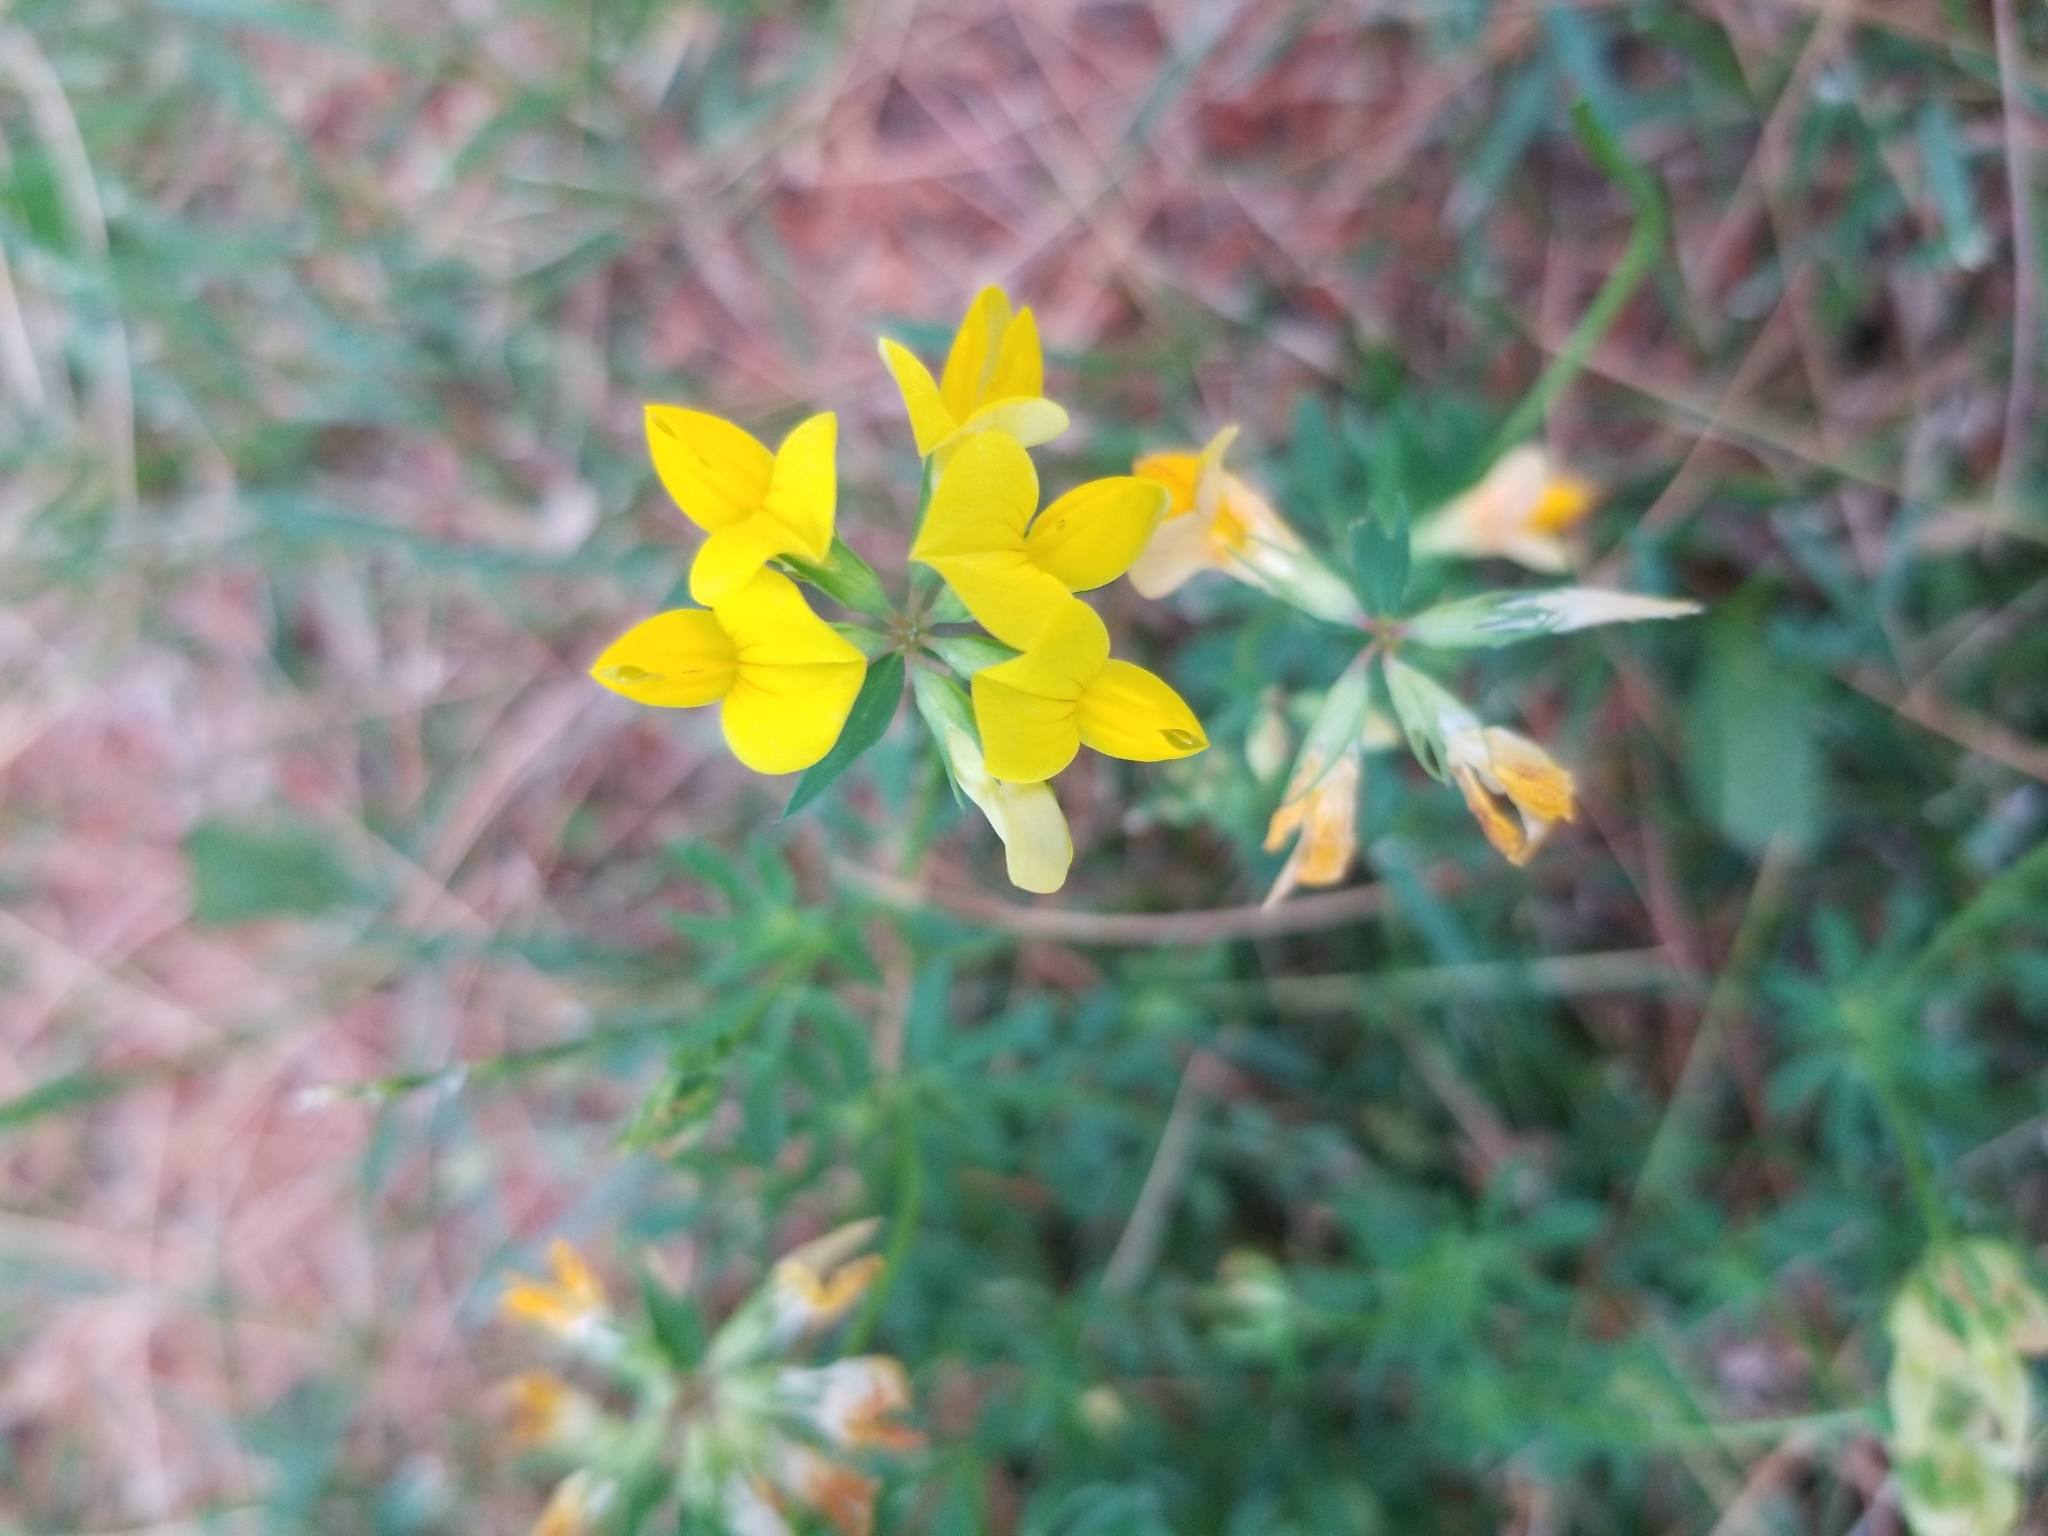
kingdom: Plantae
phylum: Tracheophyta
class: Magnoliopsida
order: Fabales
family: Fabaceae
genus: Lotus
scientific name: Lotus corniculatus
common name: Common bird's-foot-trefoil
